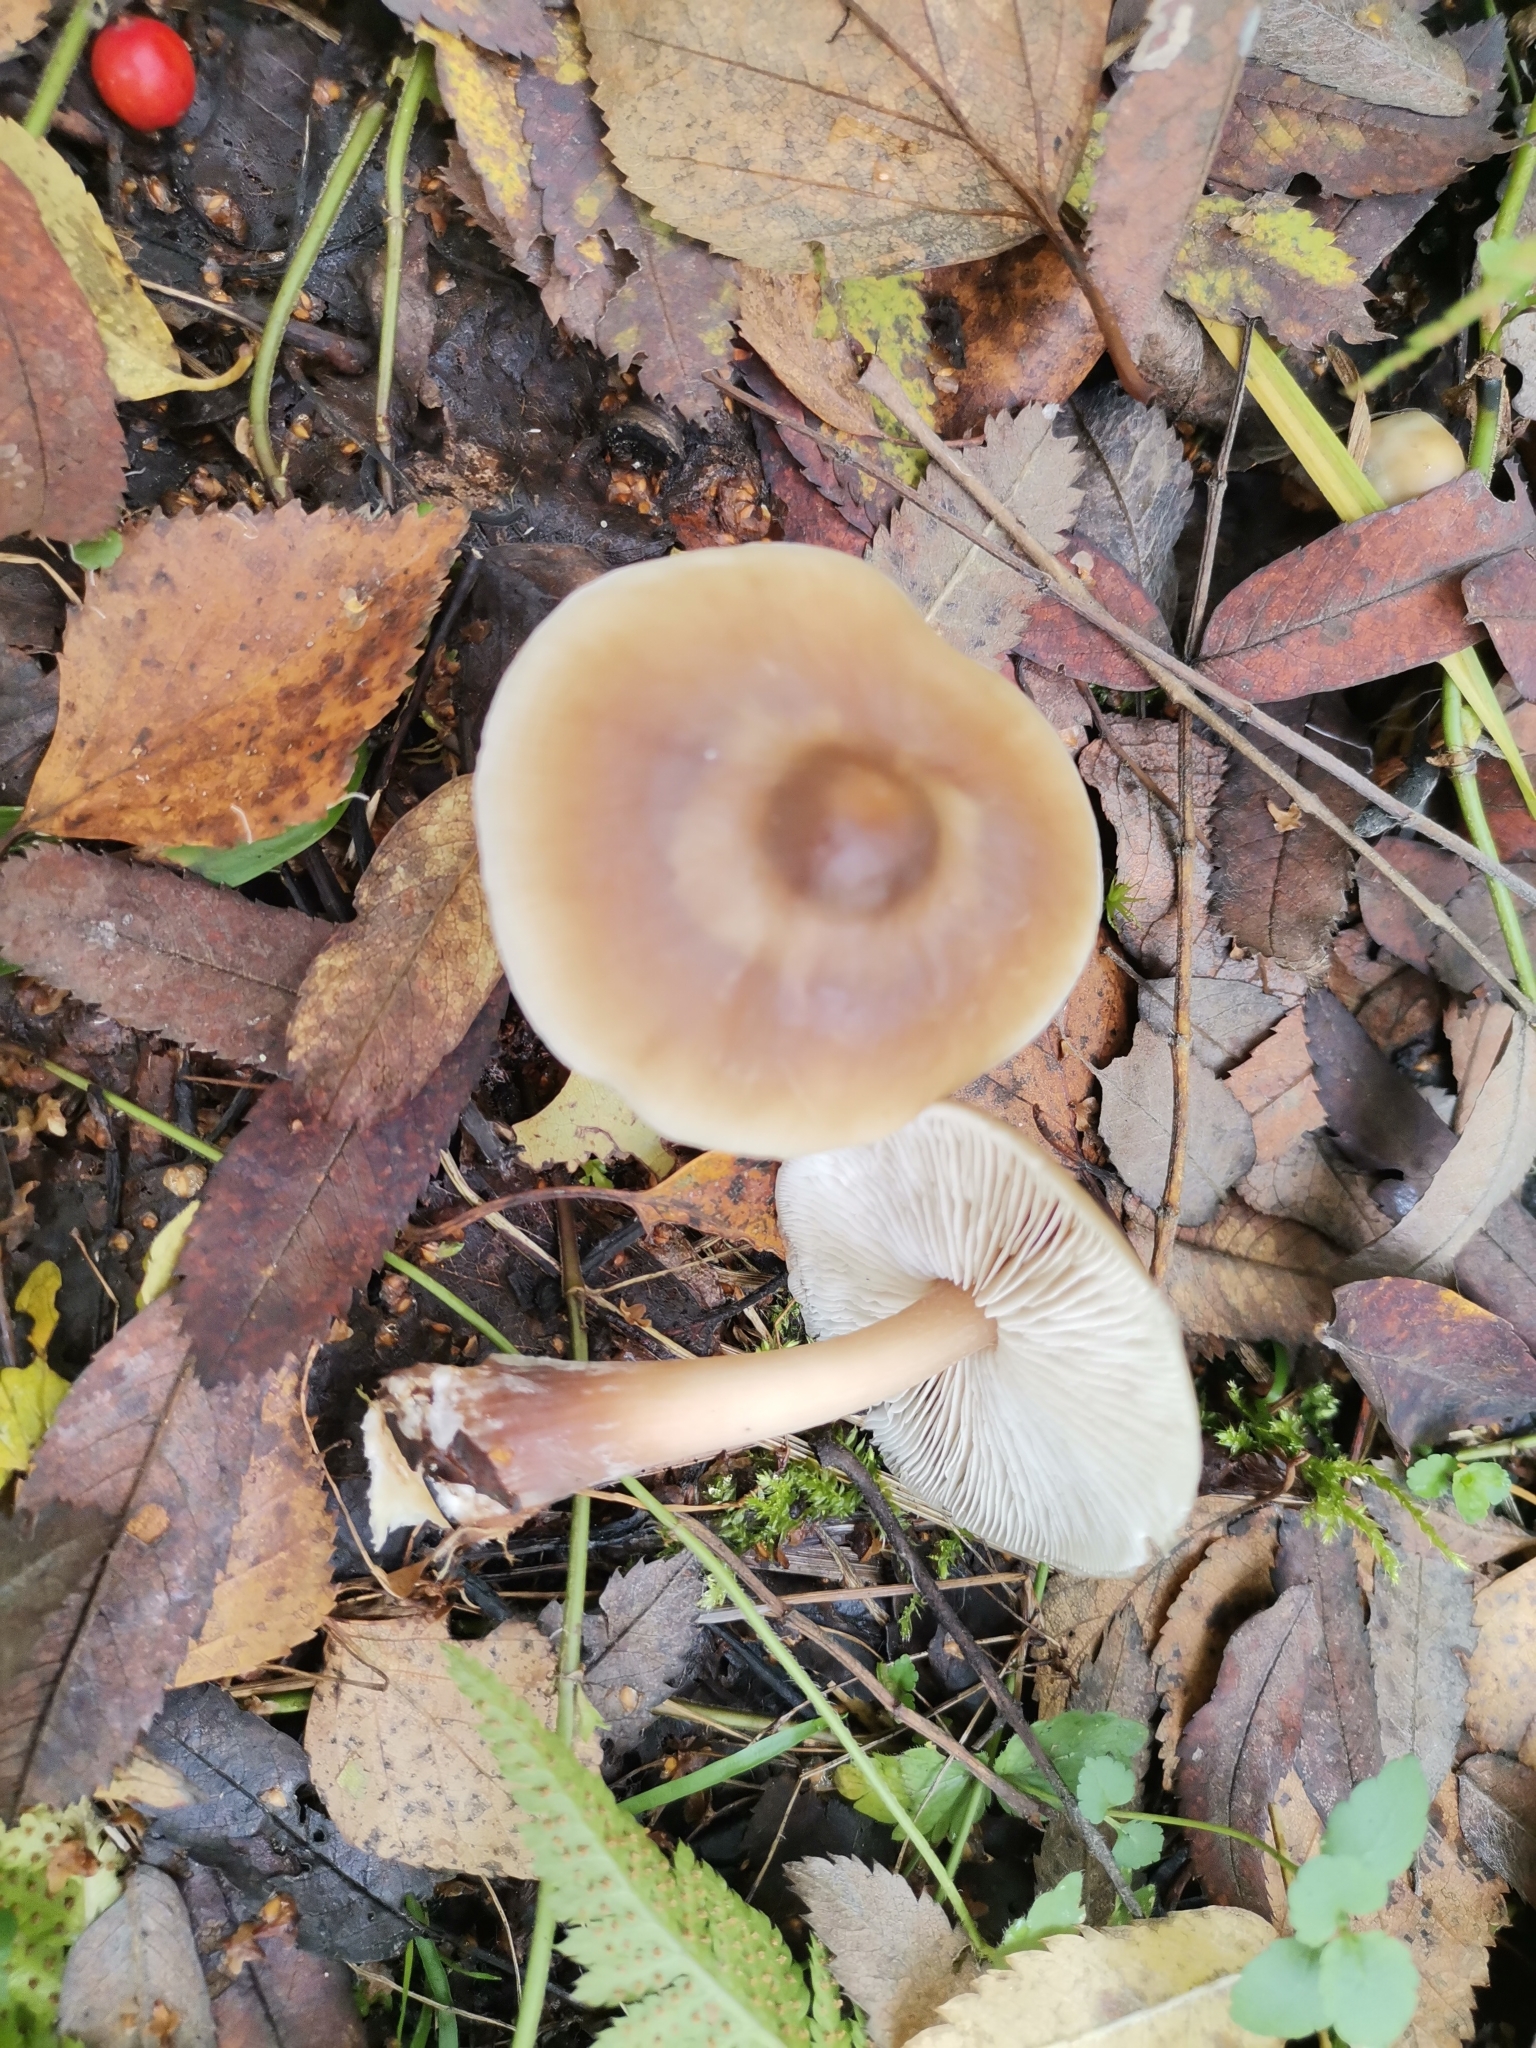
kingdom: Fungi
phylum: Basidiomycota
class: Agaricomycetes
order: Agaricales
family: Omphalotaceae
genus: Rhodocollybia
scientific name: Rhodocollybia butyracea
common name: Butter cap
